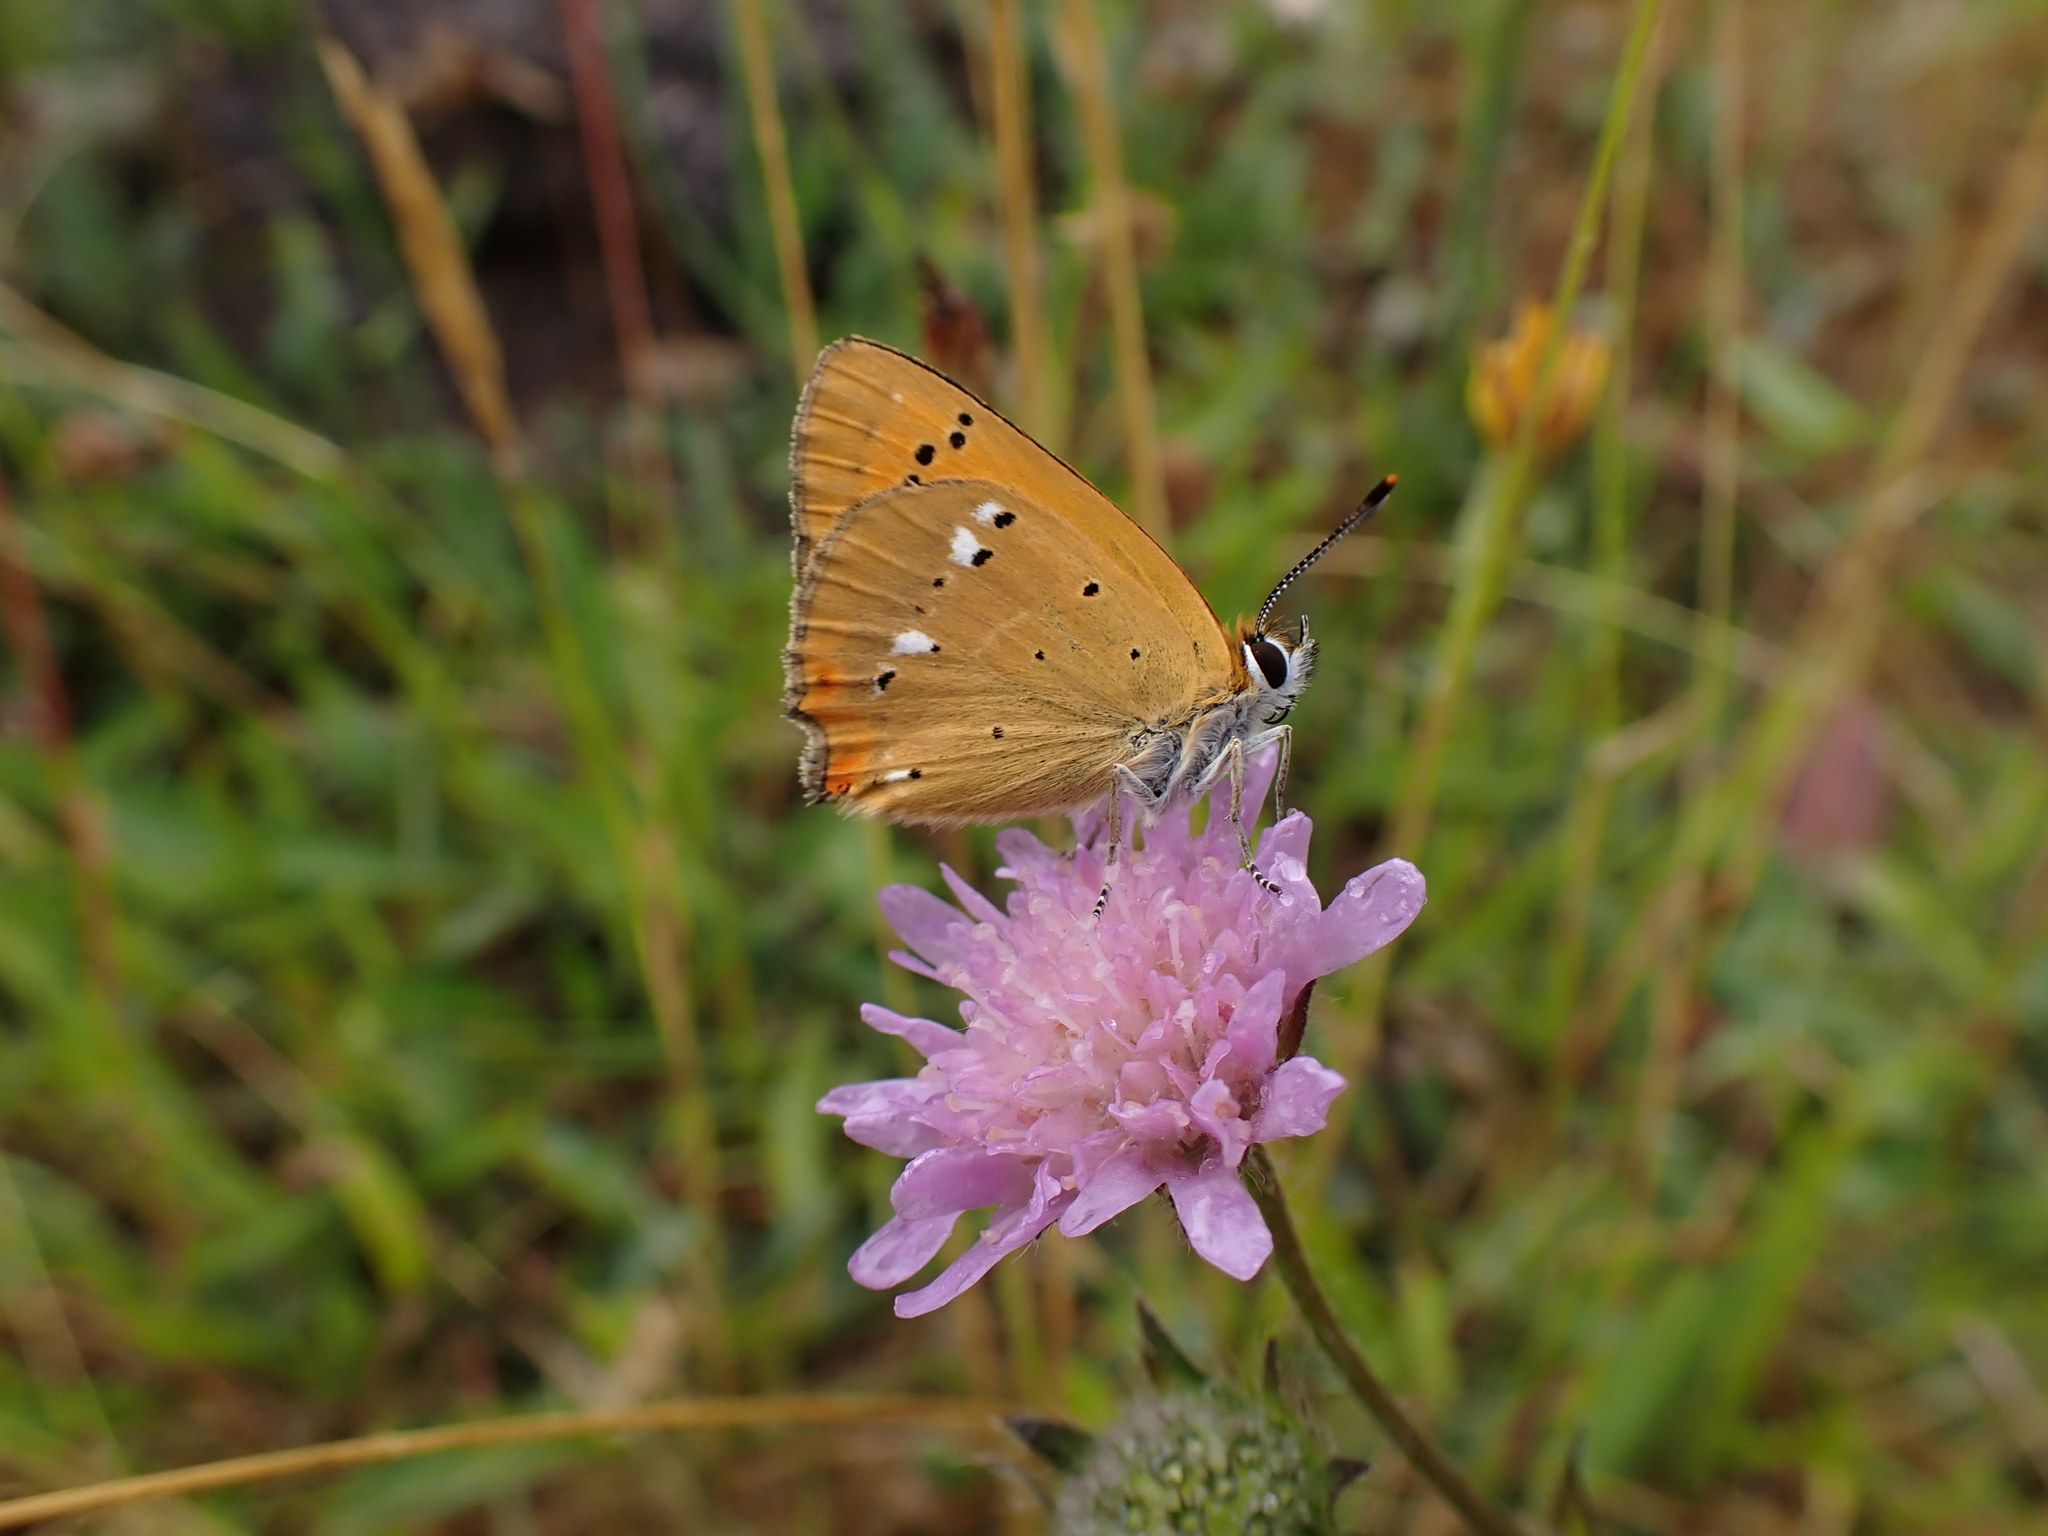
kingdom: Animalia
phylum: Arthropoda
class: Insecta
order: Lepidoptera
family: Lycaenidae
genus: Lycaena
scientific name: Lycaena virgaureae
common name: Scarce copper
